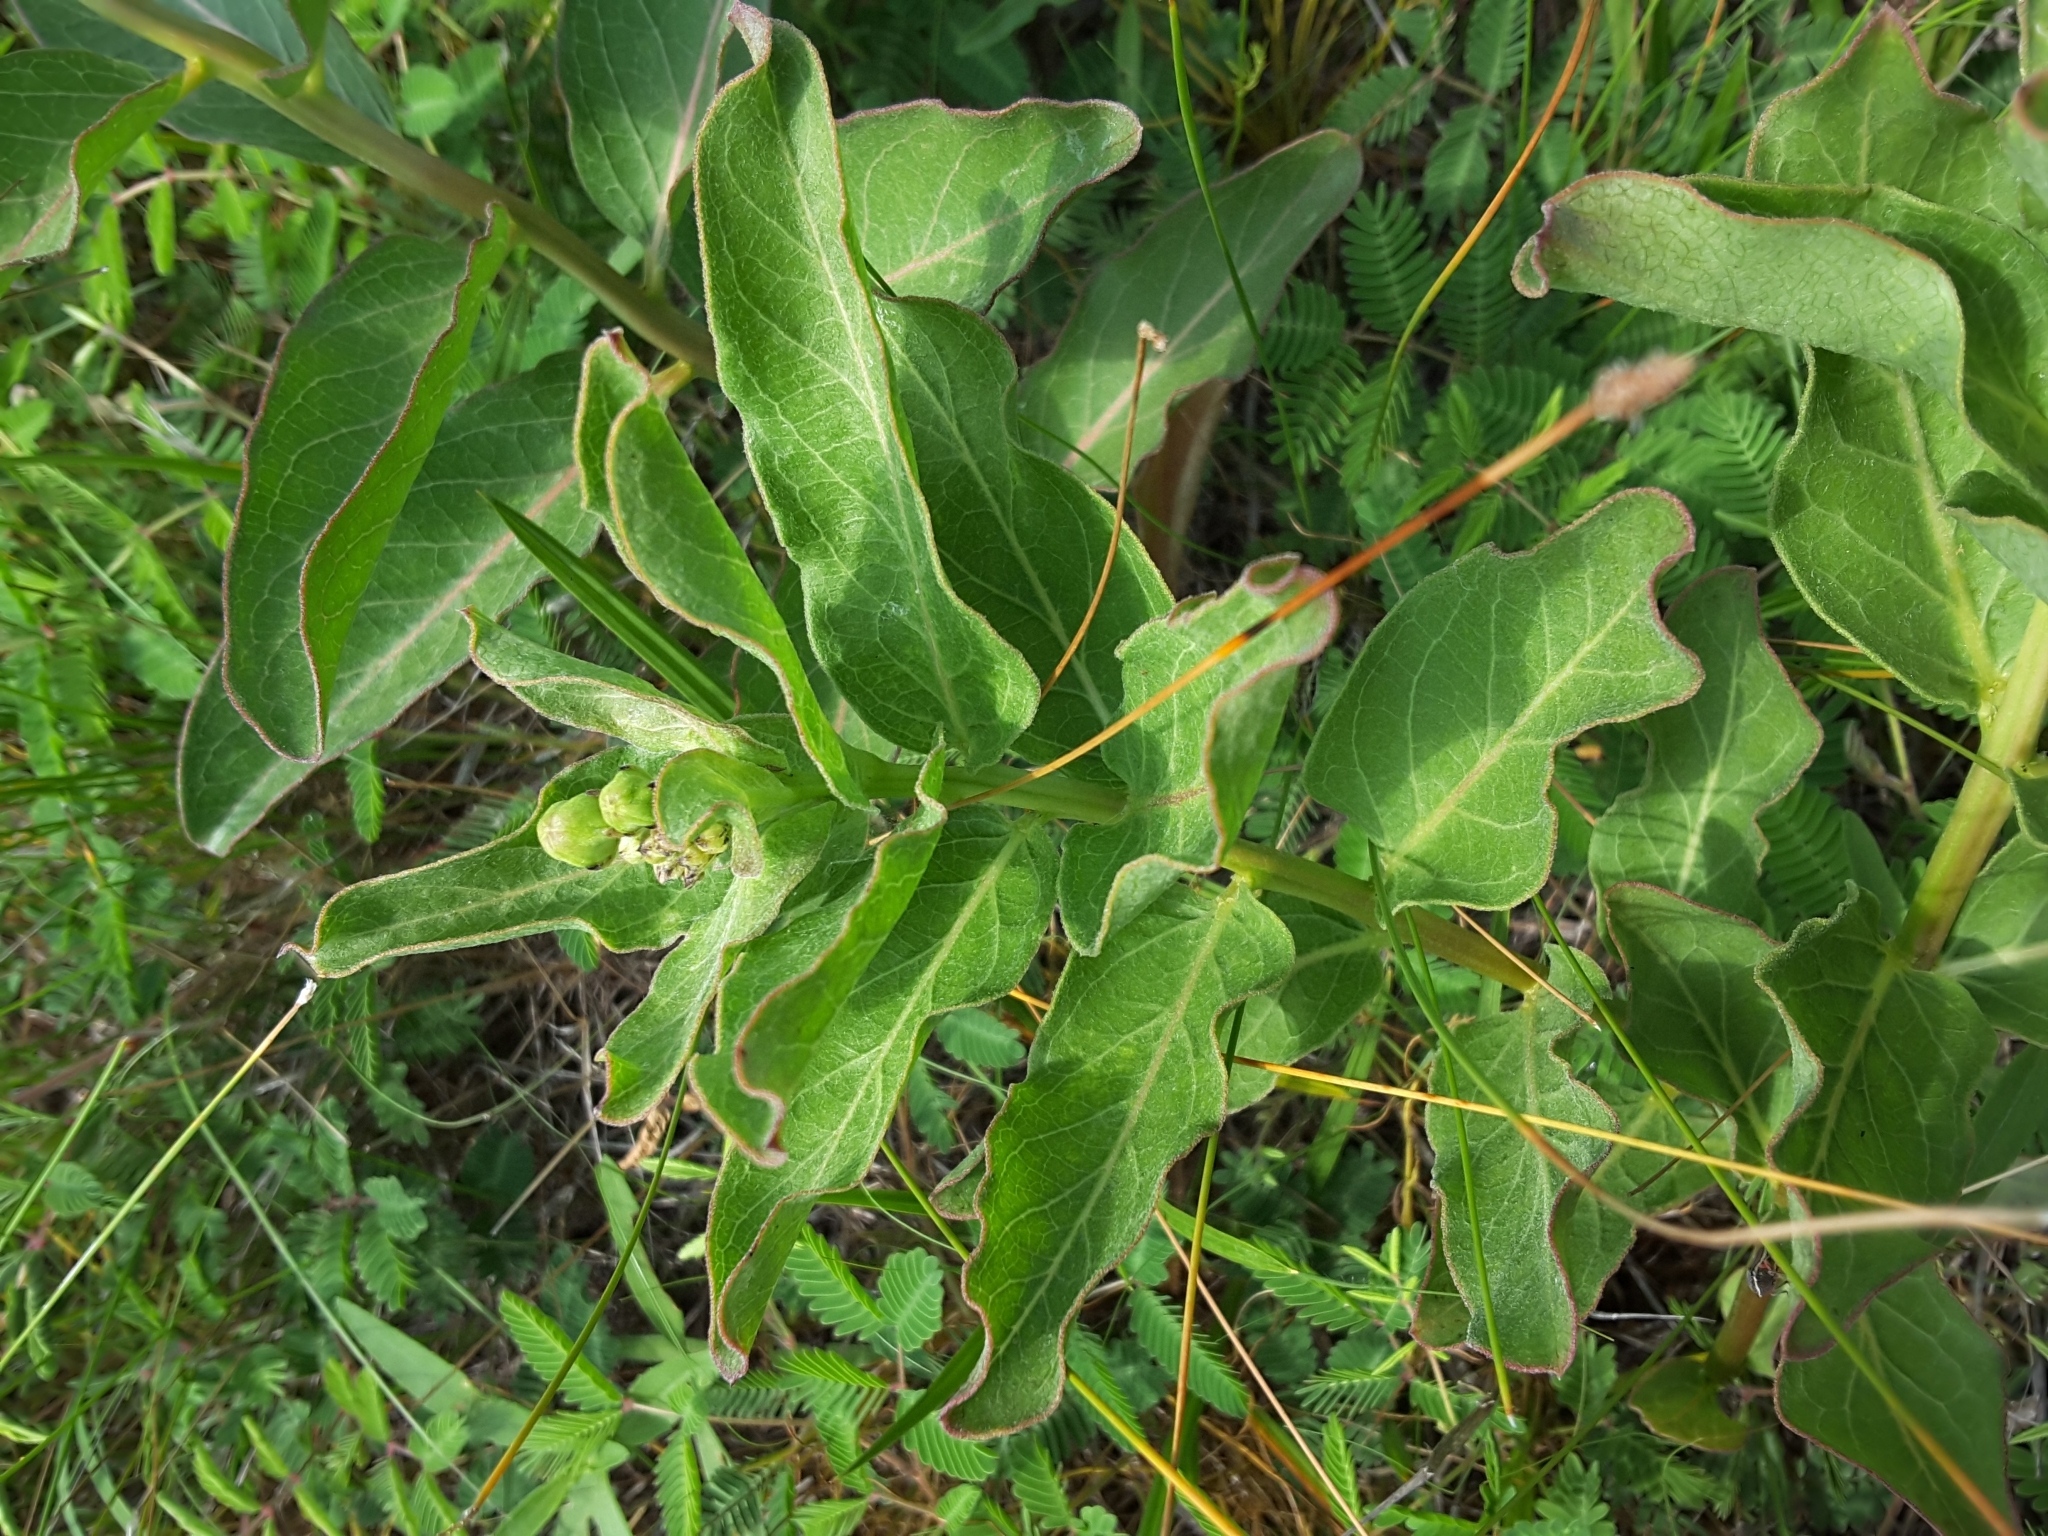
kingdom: Plantae
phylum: Tracheophyta
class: Magnoliopsida
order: Gentianales
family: Apocynaceae
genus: Asclepias
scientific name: Asclepias viridis
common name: Antelope-horns
